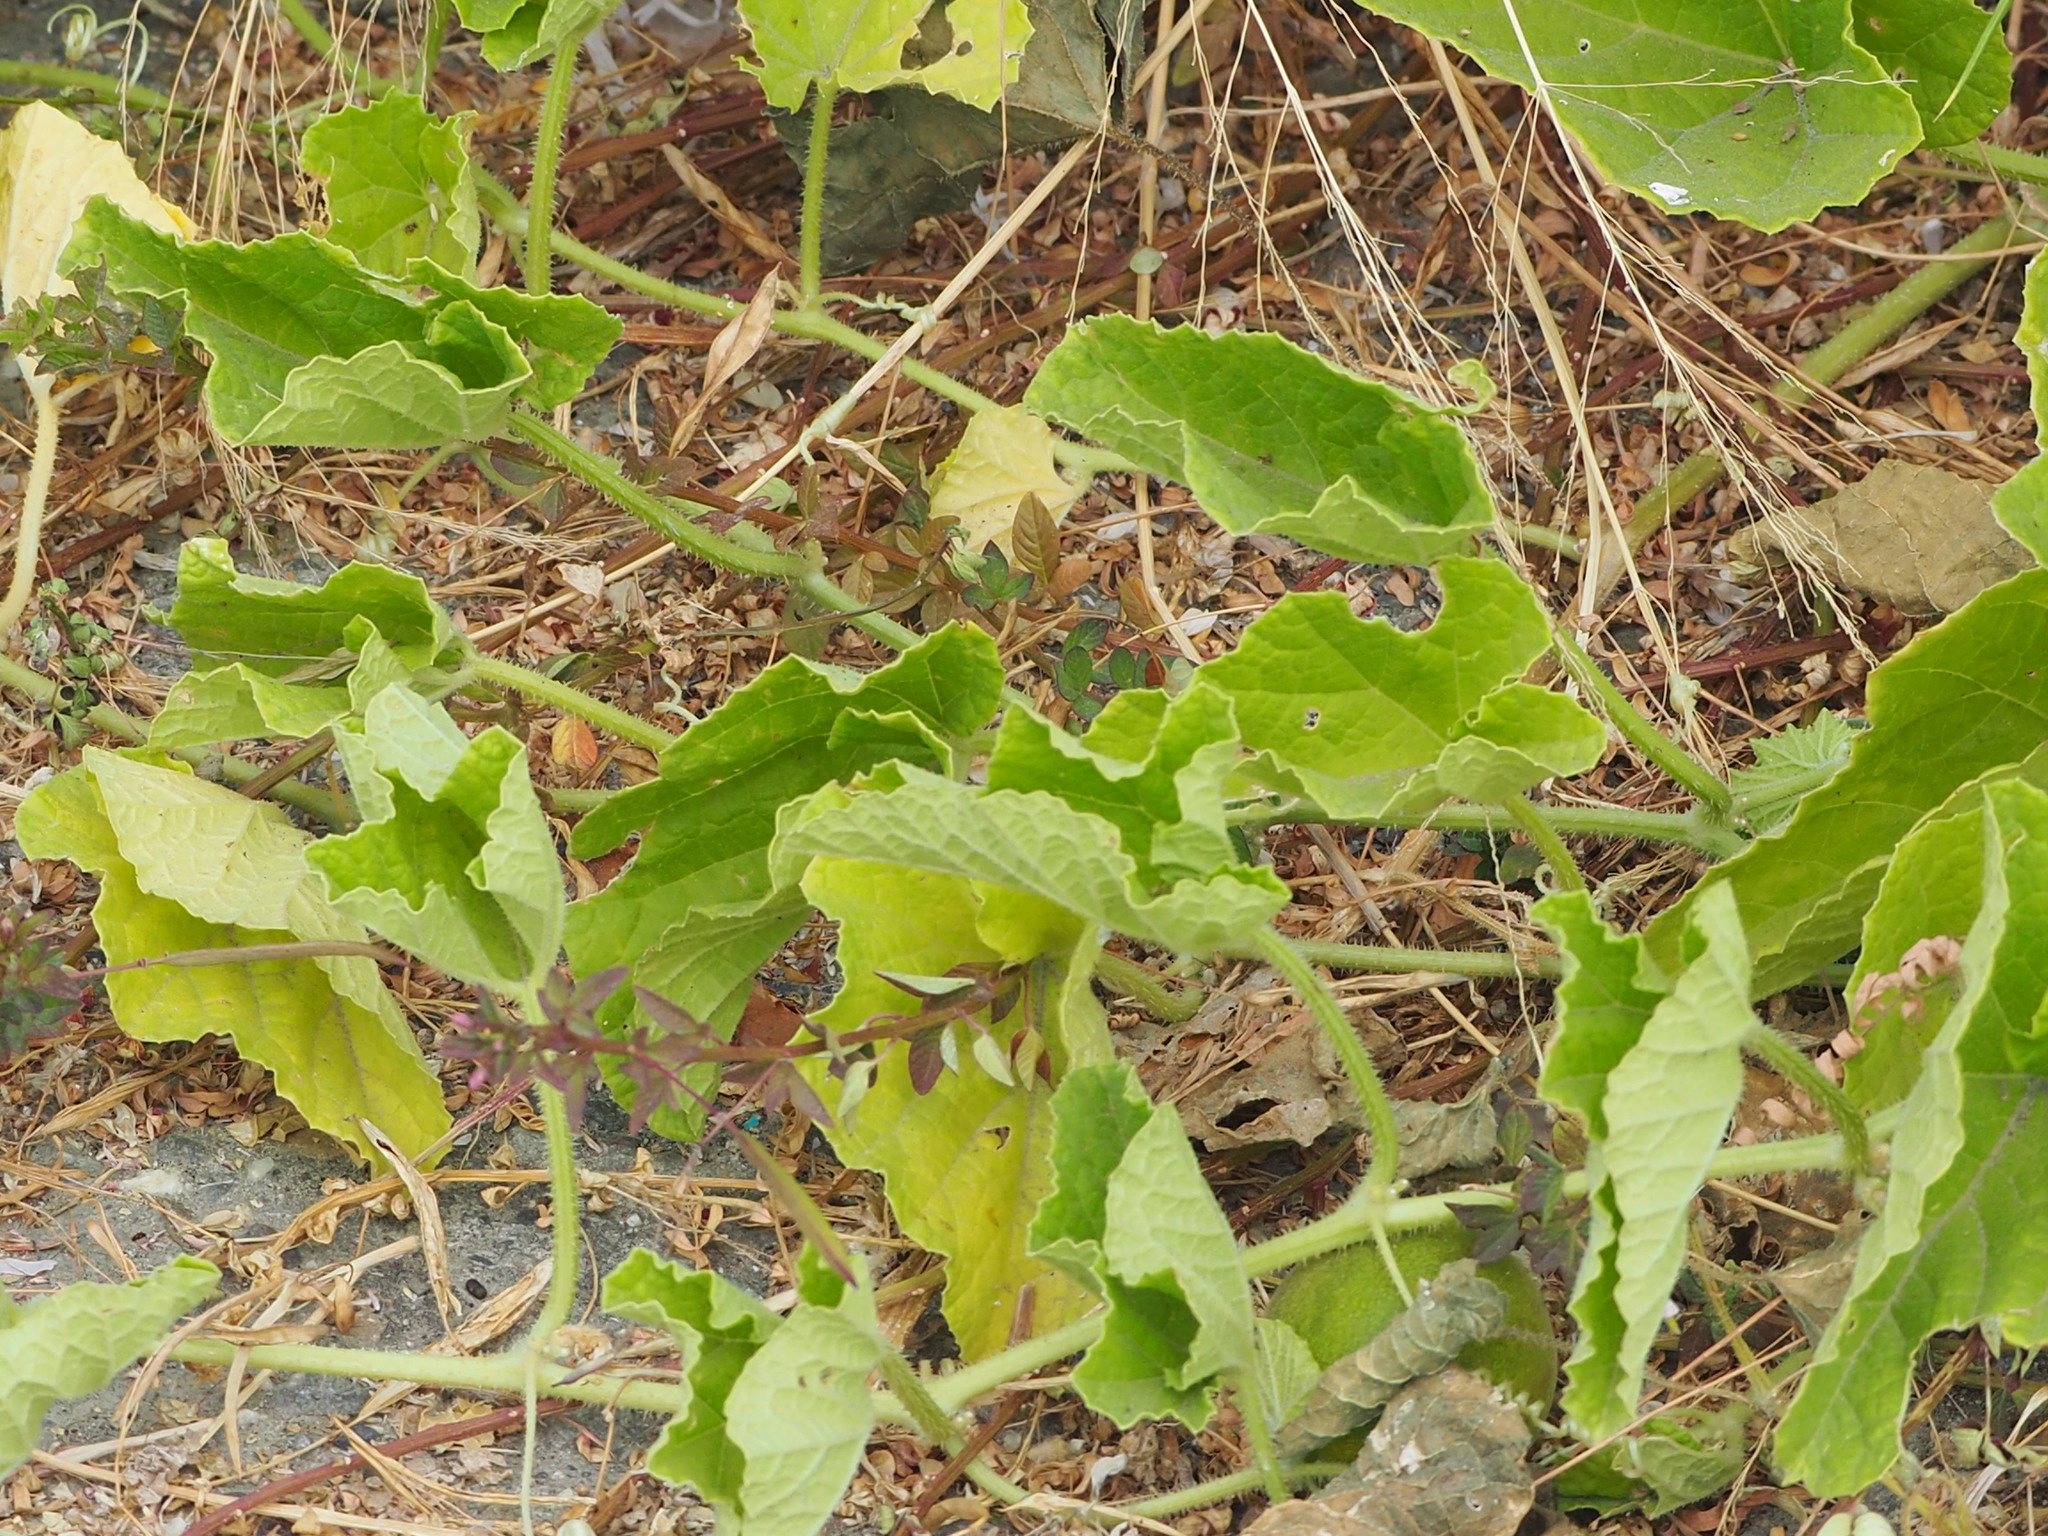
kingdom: Plantae
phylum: Tracheophyta
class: Magnoliopsida
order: Cucurbitales
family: Cucurbitaceae
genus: Cucumis
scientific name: Cucumis melo
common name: Melon
